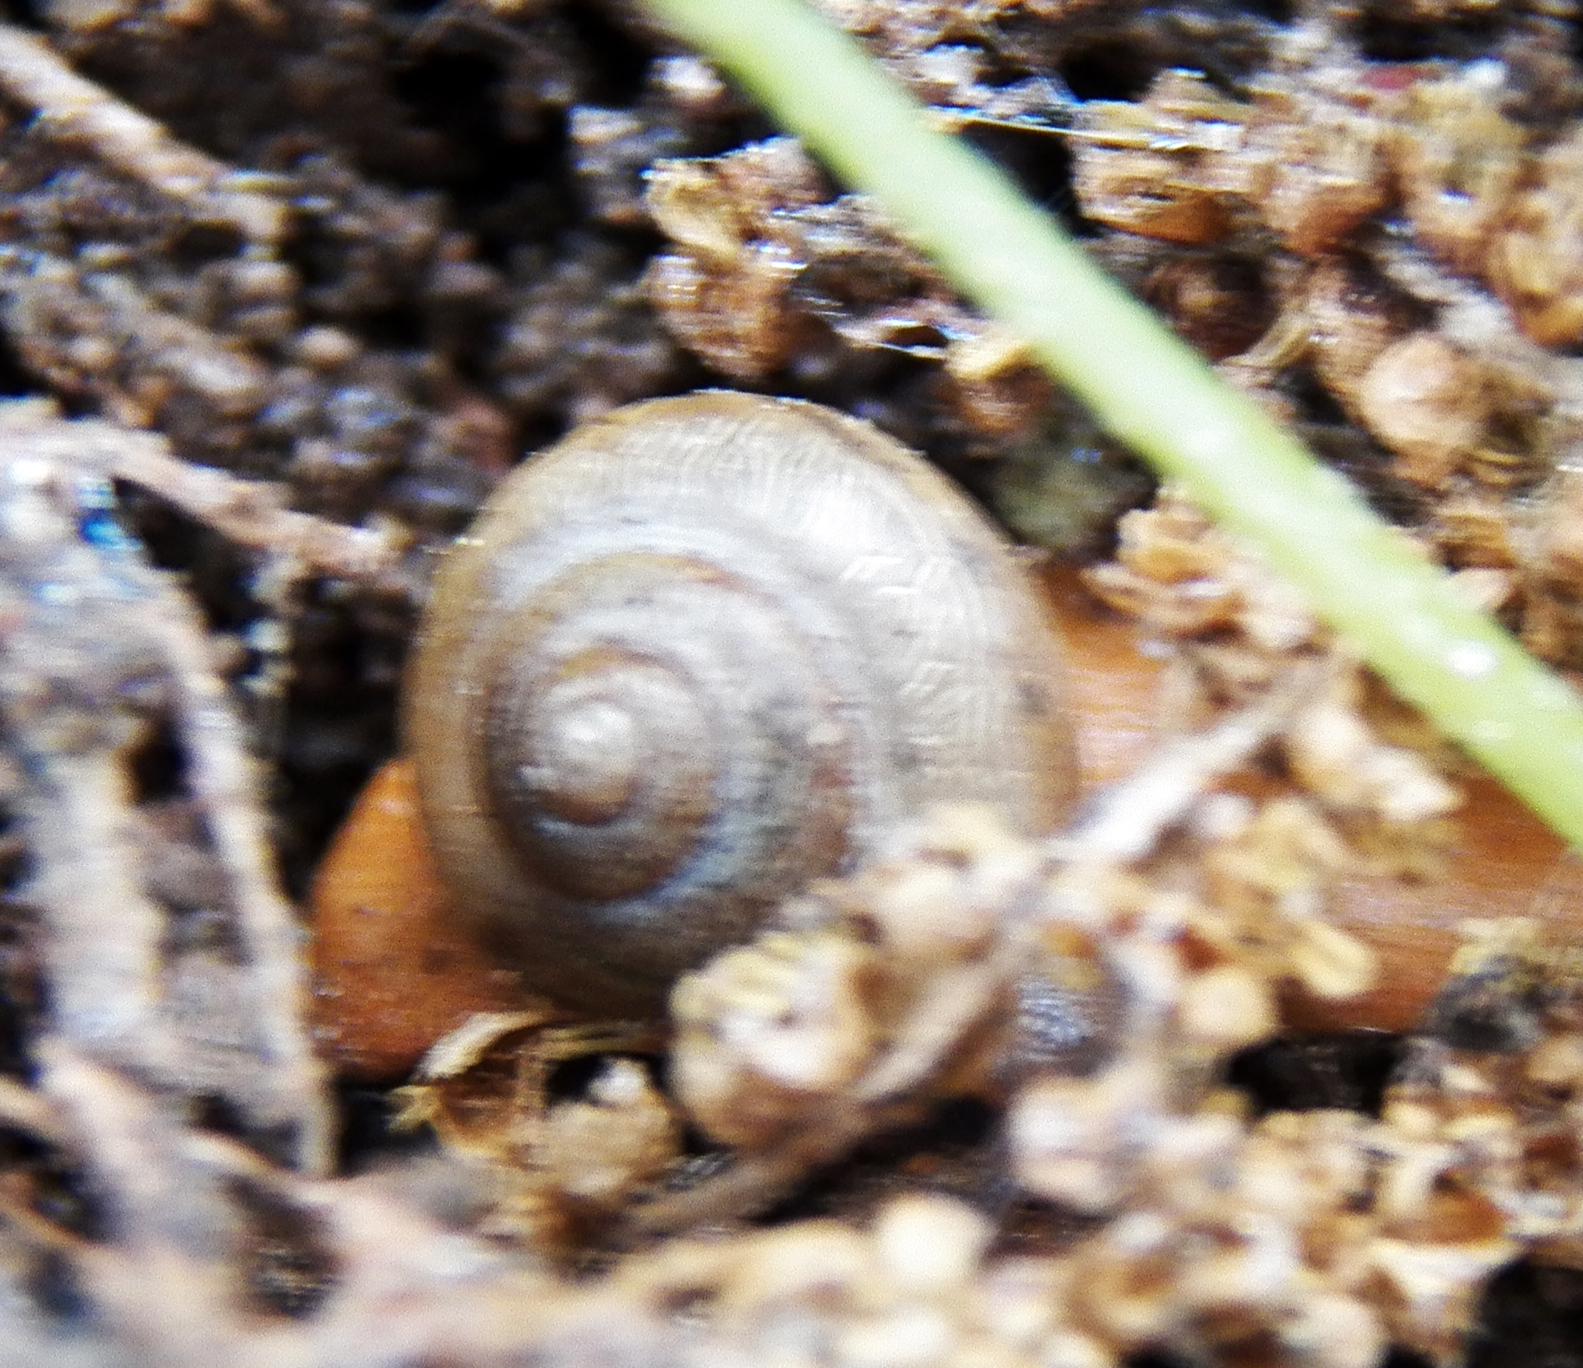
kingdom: Animalia
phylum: Mollusca
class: Gastropoda
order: Stylommatophora
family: Camaenidae
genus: Bradybaena
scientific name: Bradybaena similaris
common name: Asian trampsnail
